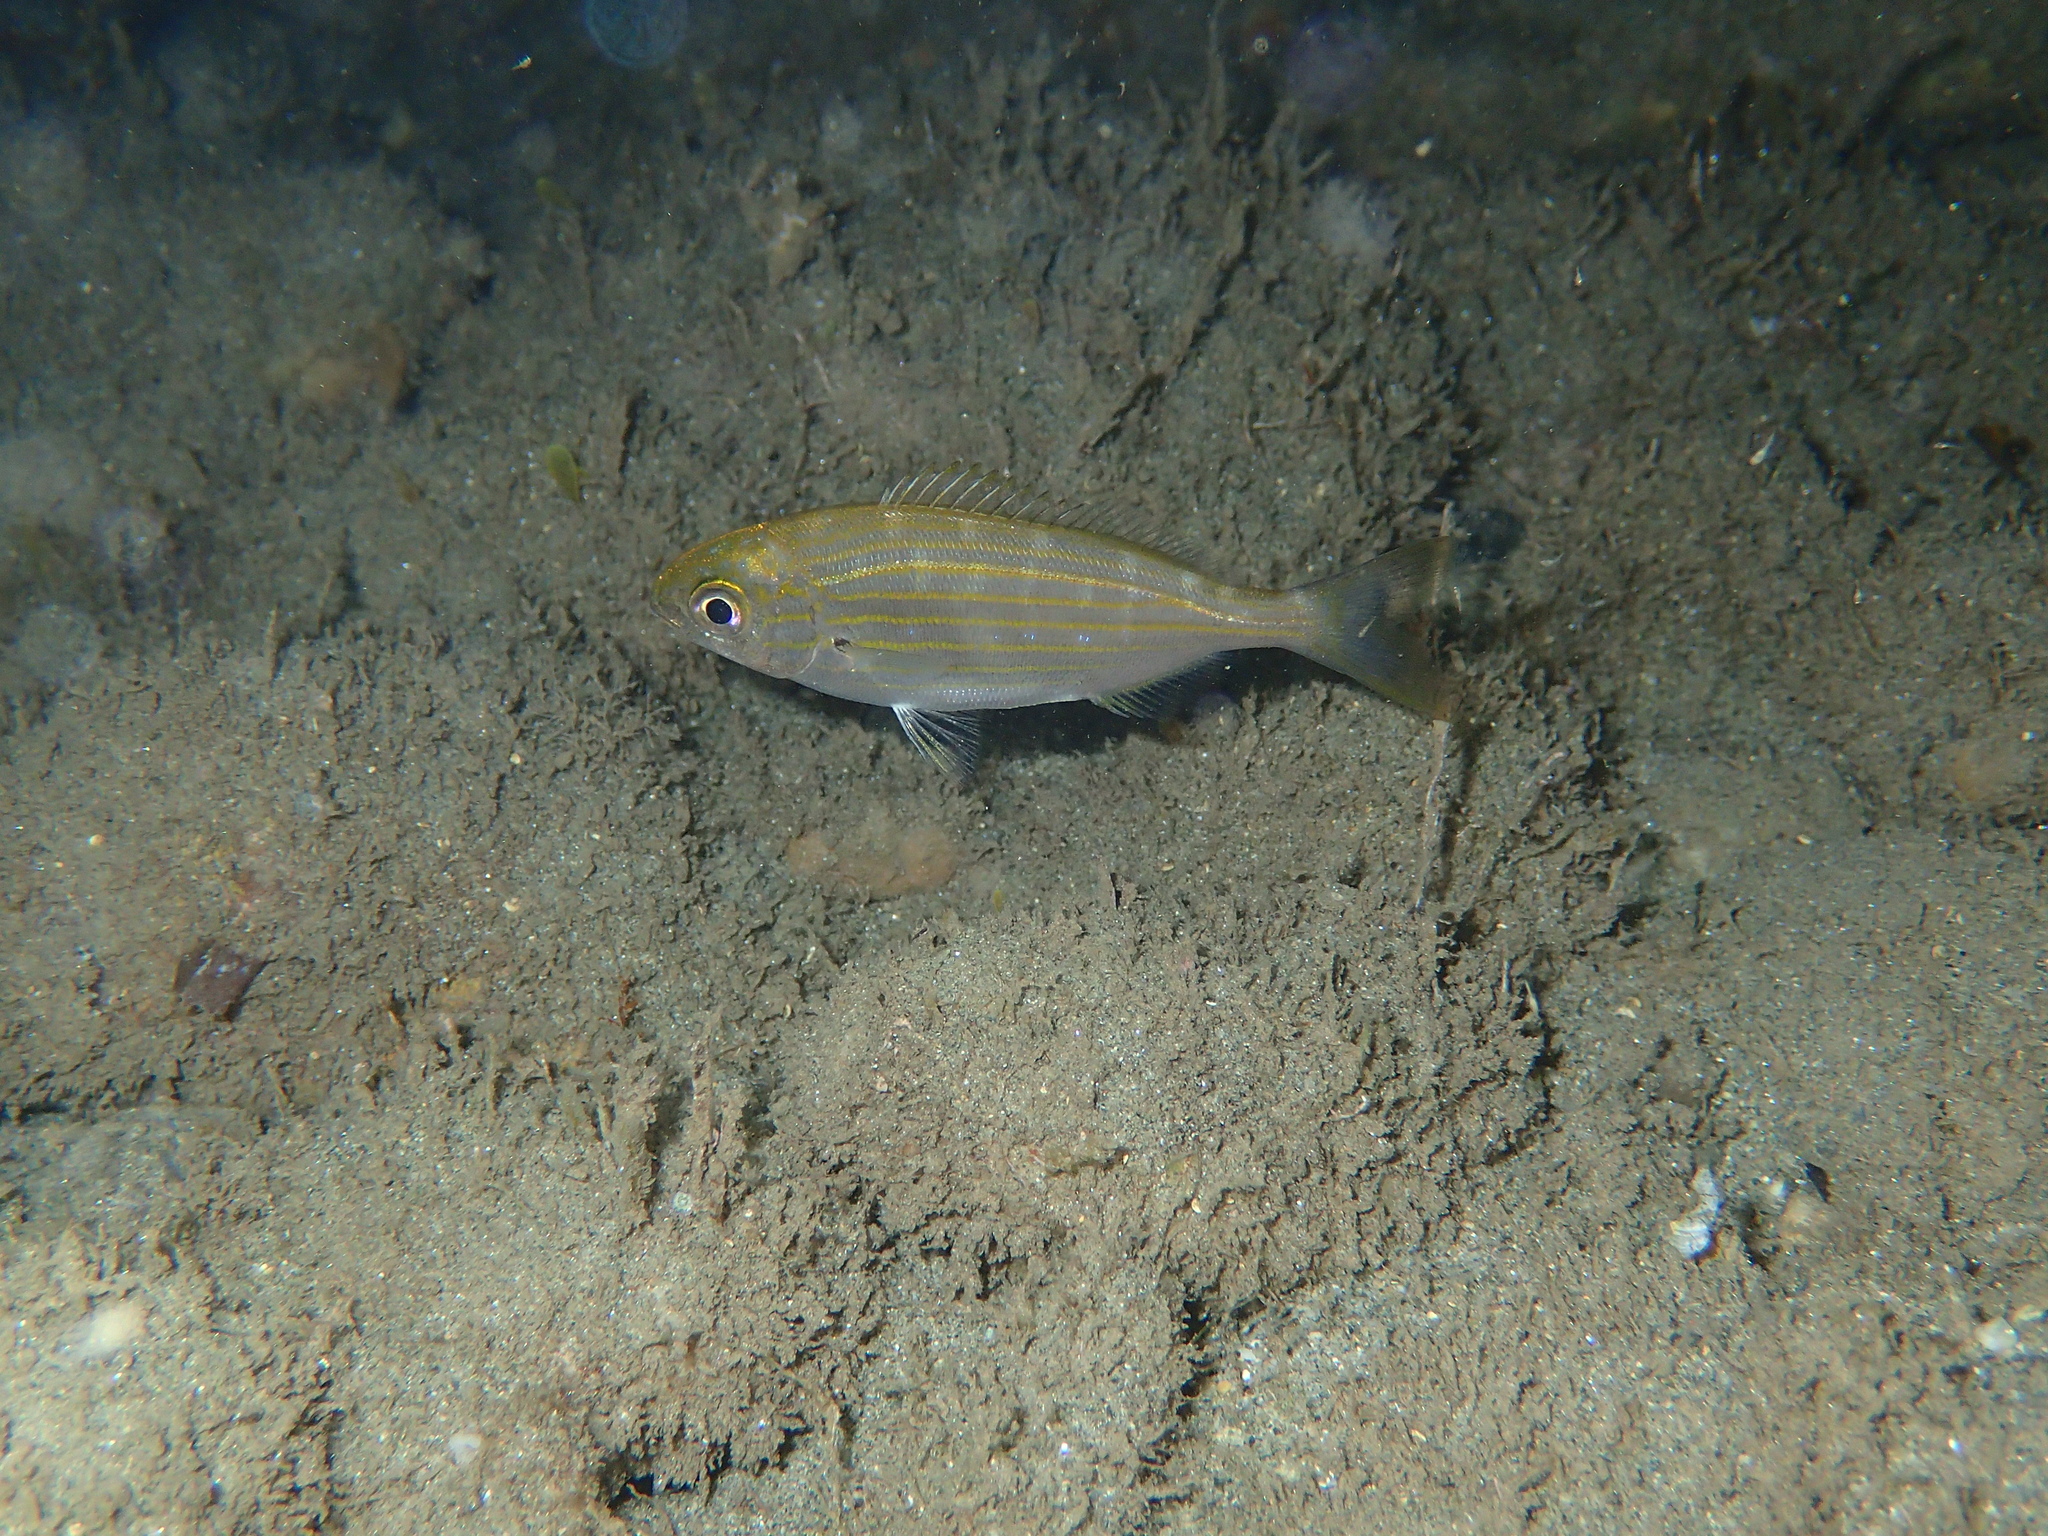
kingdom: Animalia
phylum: Chordata
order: Perciformes
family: Sparidae
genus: Sarpa
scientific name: Sarpa salpa
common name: Salema
